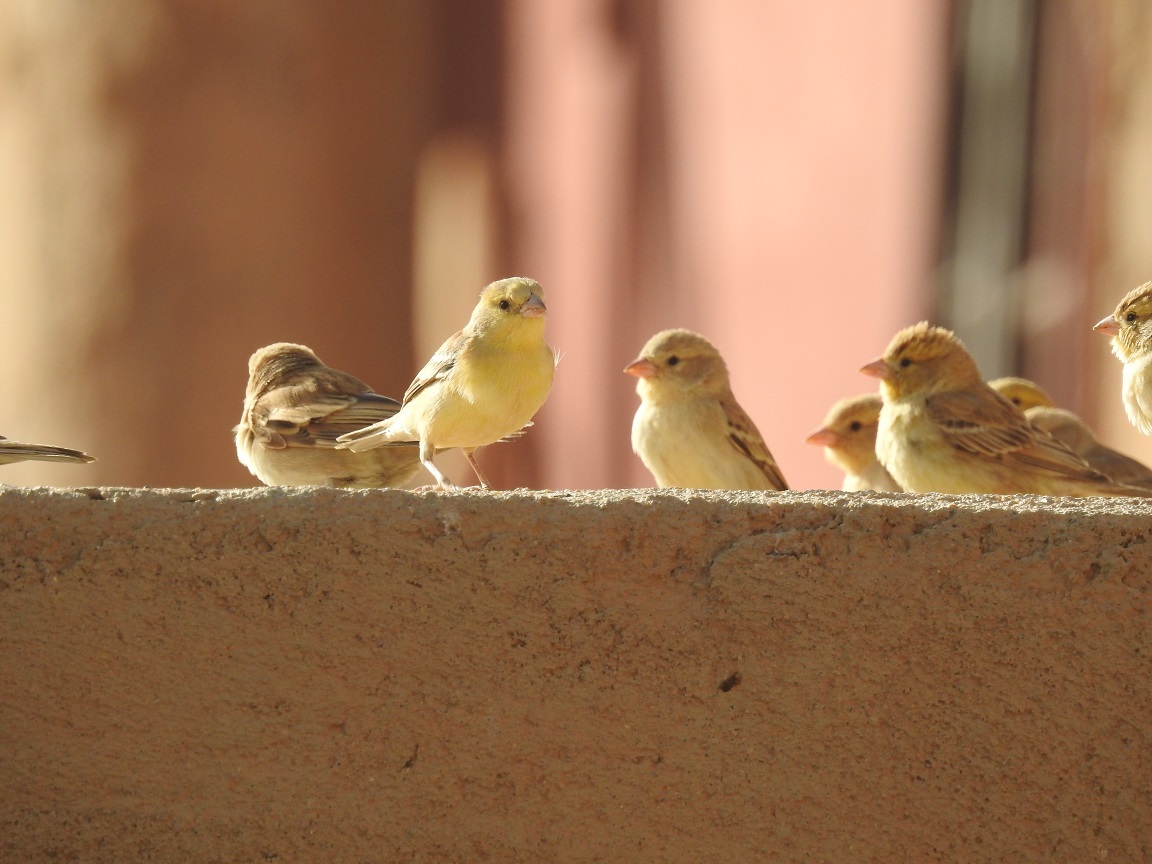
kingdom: Animalia
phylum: Chordata
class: Aves
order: Passeriformes
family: Passeridae
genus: Passer
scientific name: Passer luteus
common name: Sudan golden sparrow
